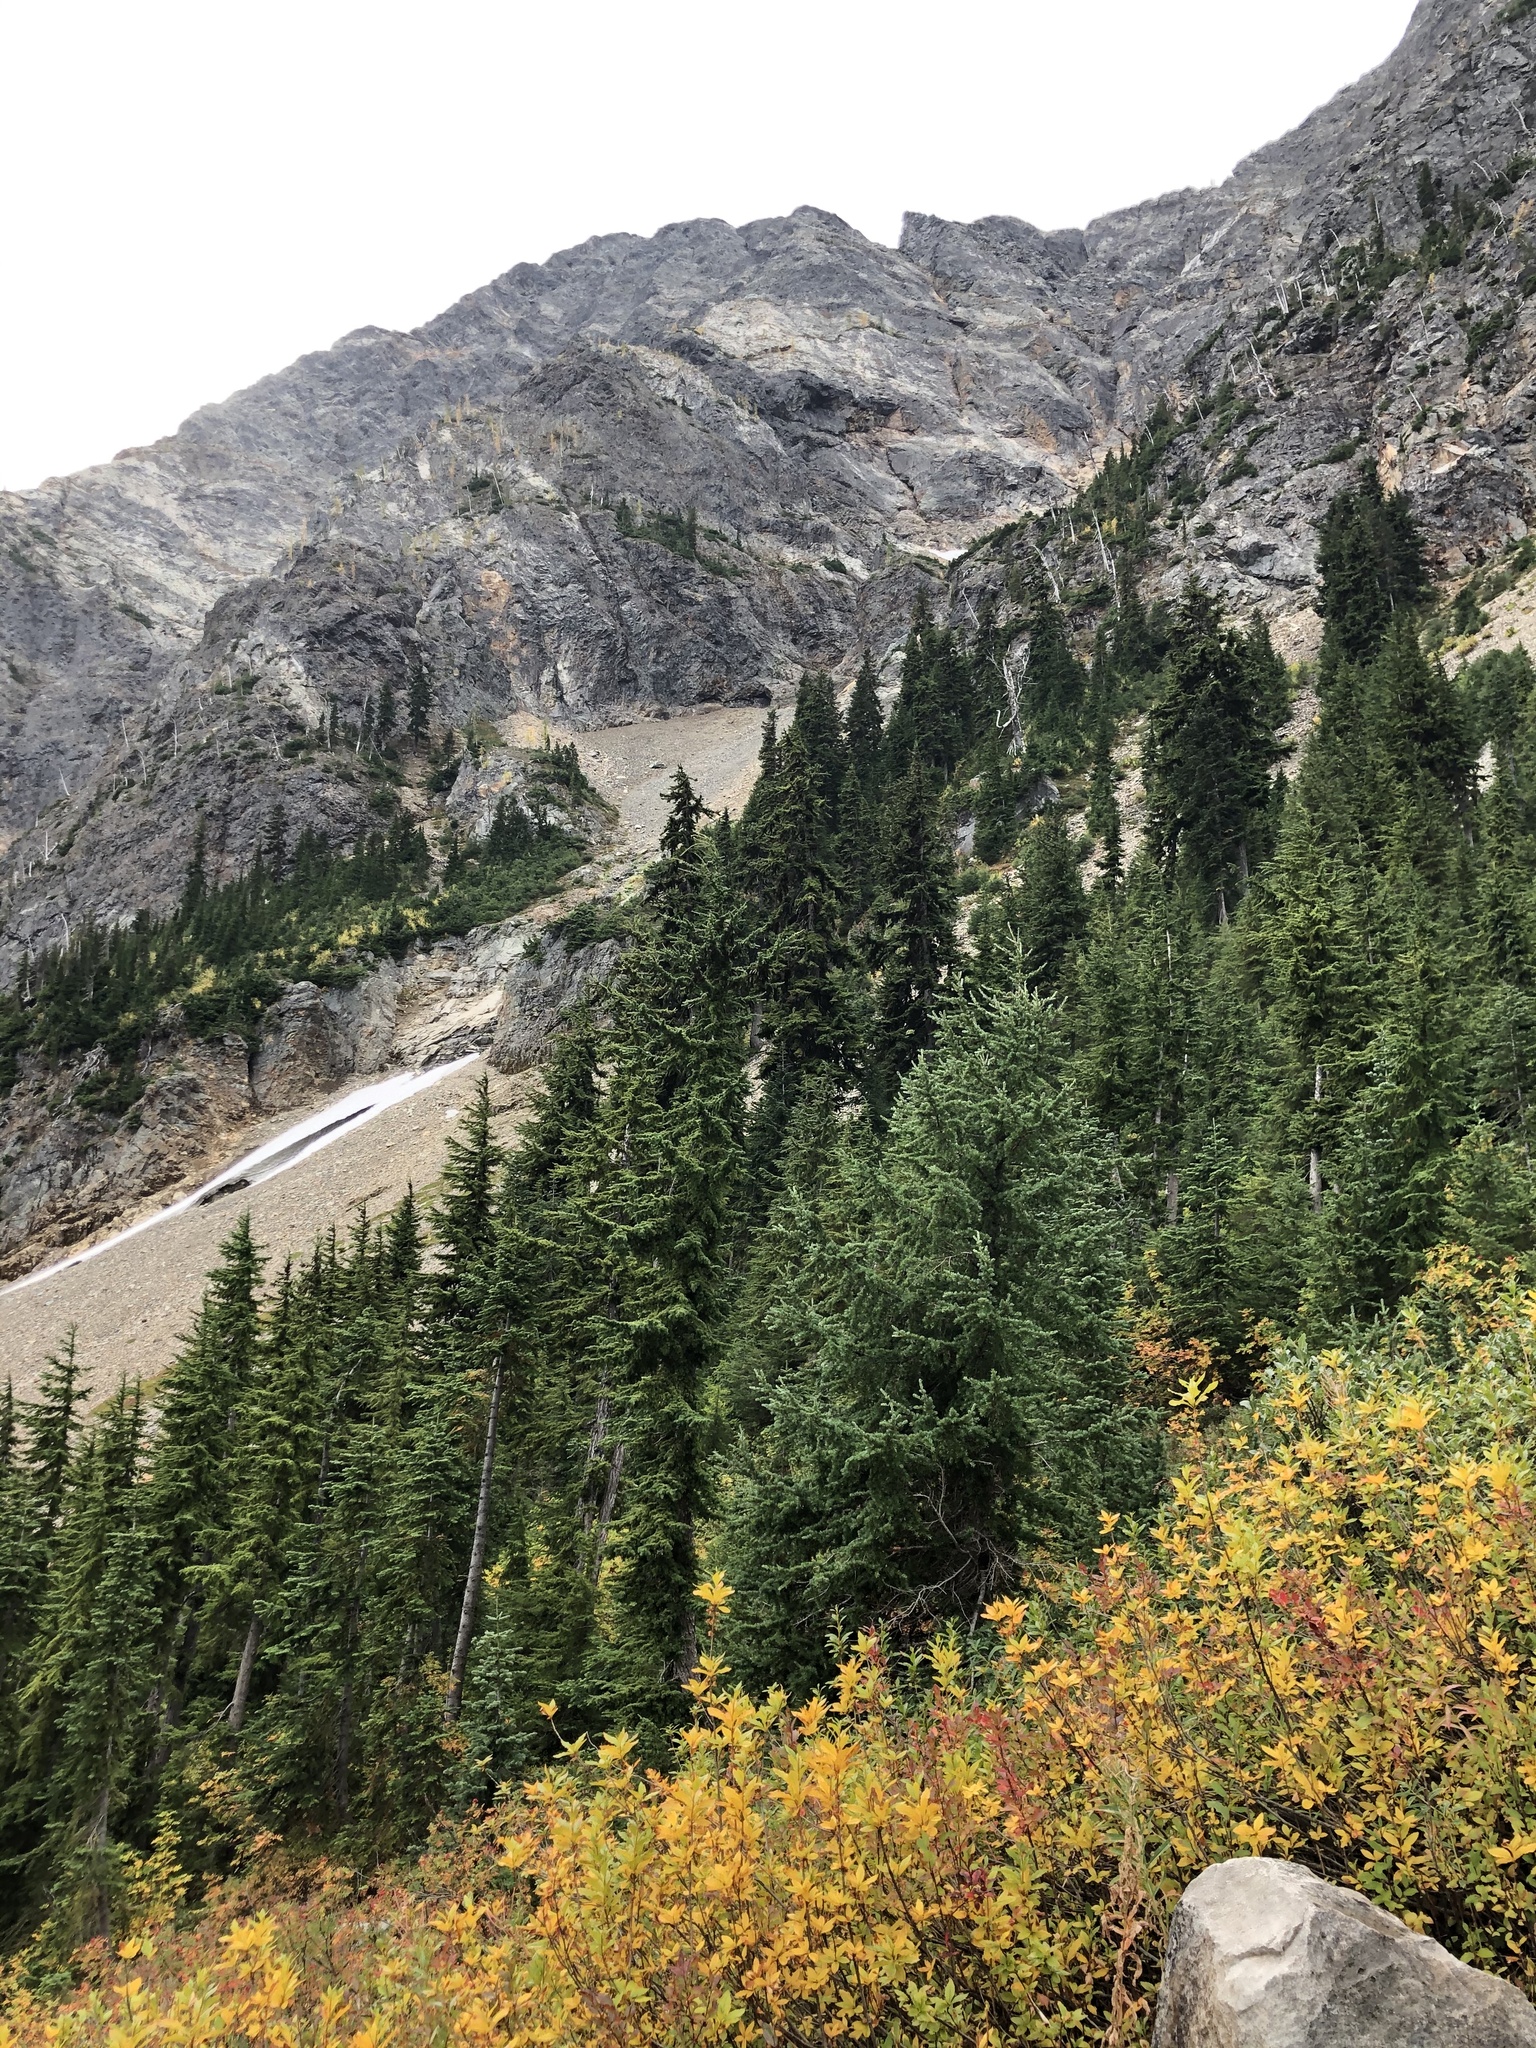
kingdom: Plantae
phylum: Tracheophyta
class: Pinopsida
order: Pinales
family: Pinaceae
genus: Tsuga
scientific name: Tsuga mertensiana
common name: Mountain hemlock
